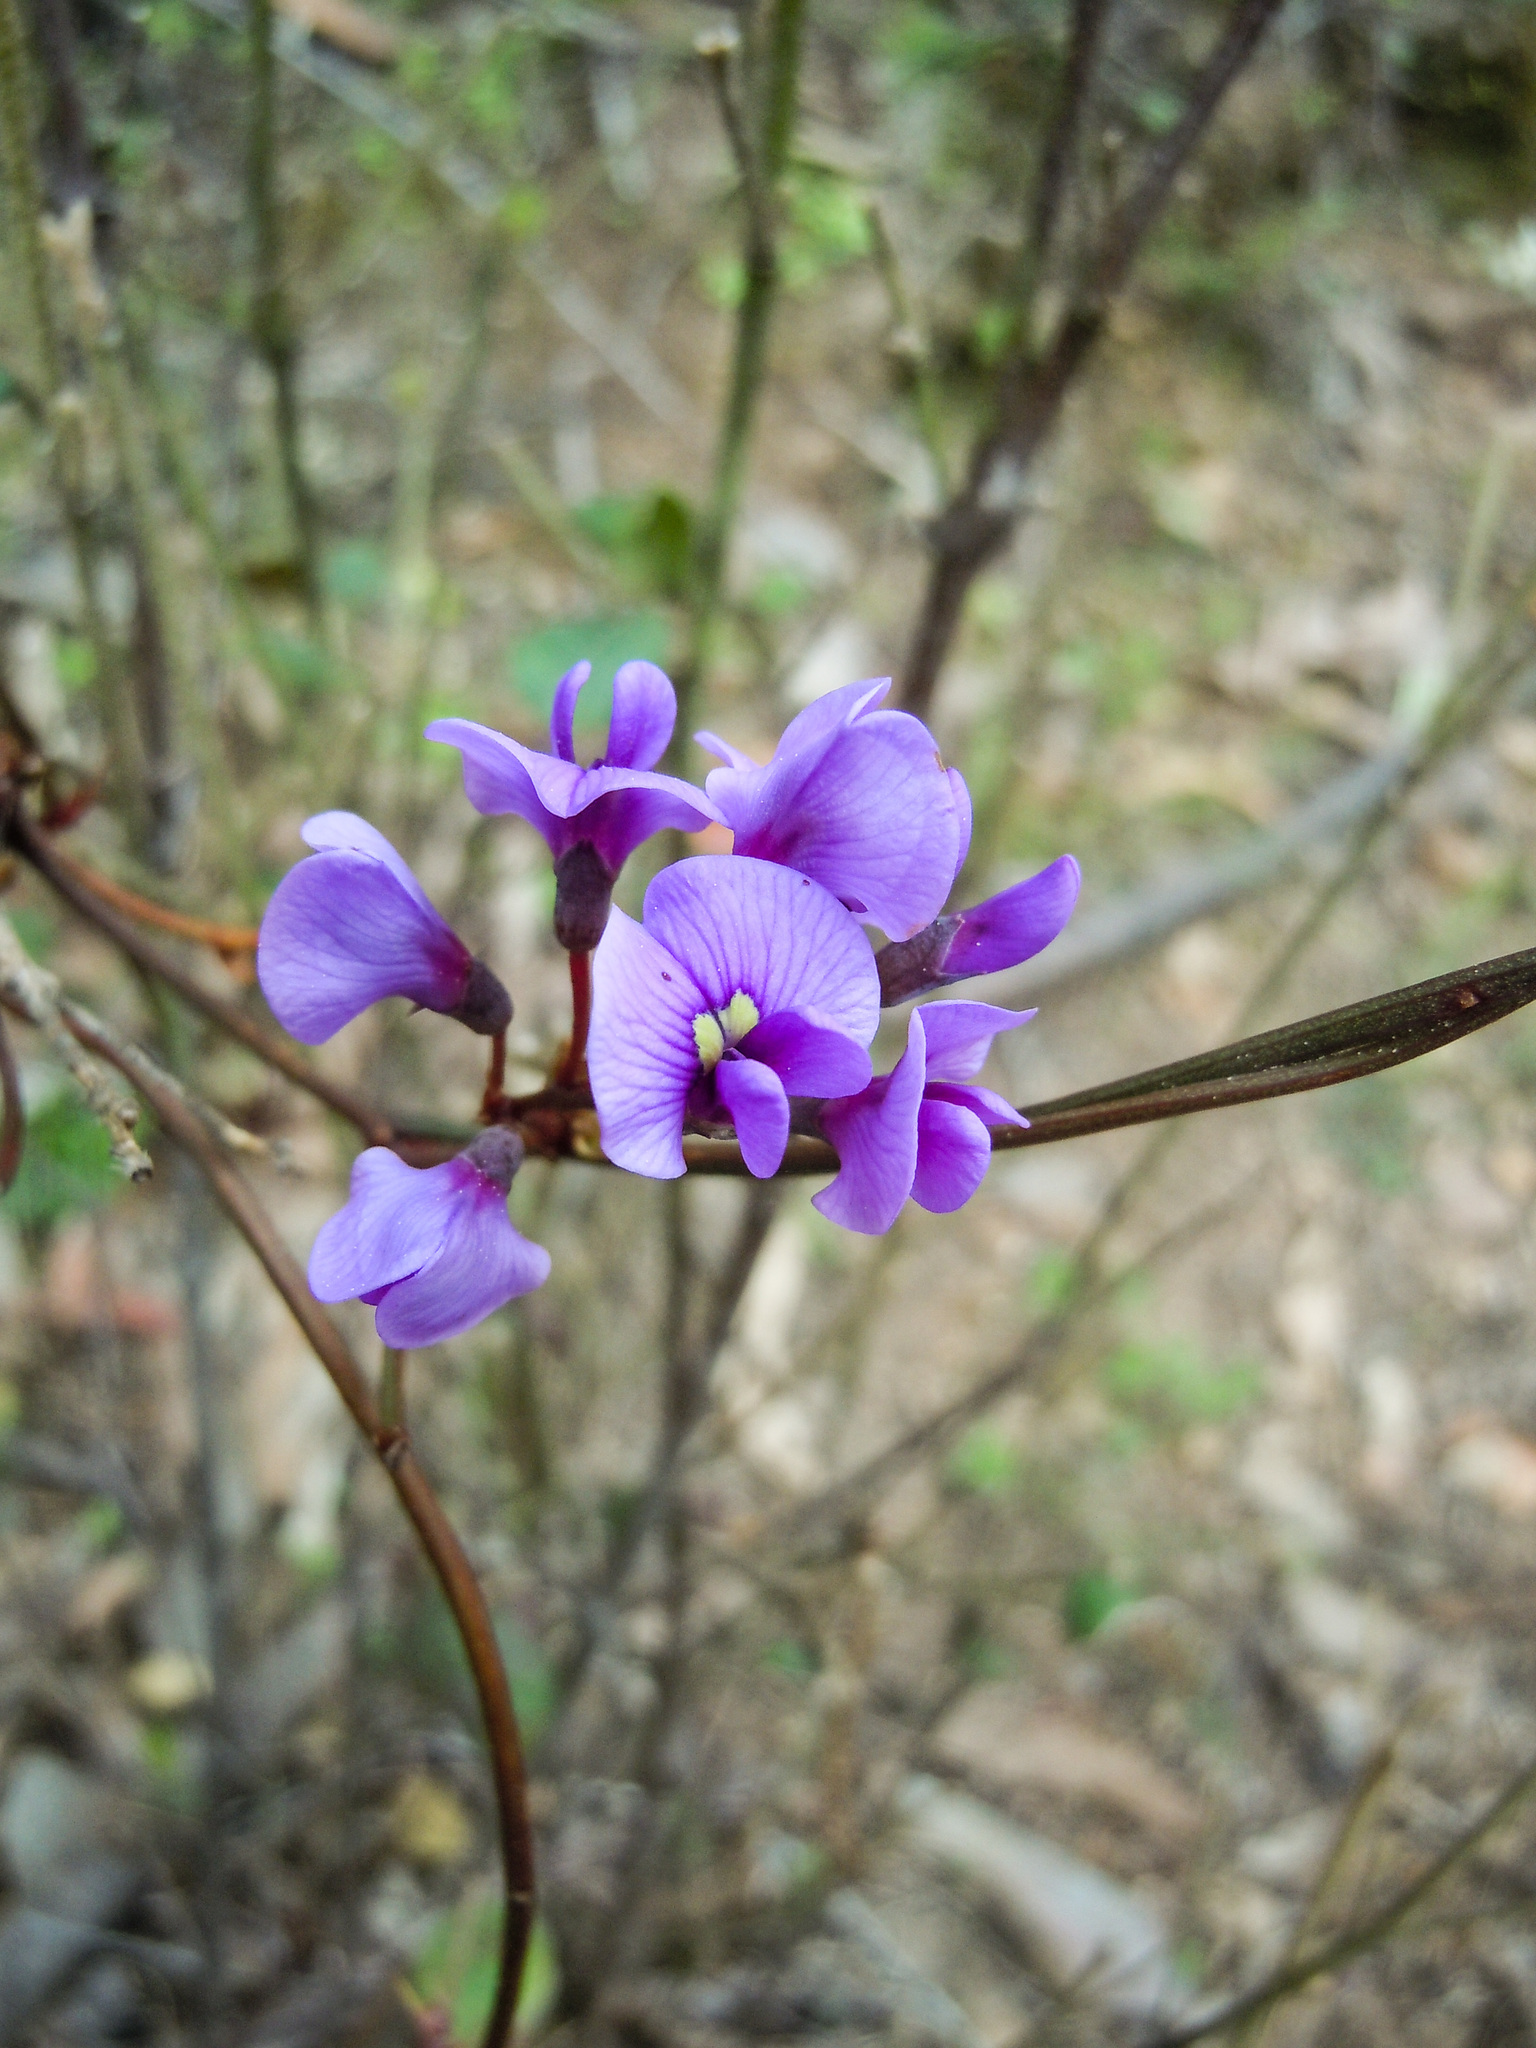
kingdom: Plantae
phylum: Tracheophyta
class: Magnoliopsida
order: Fabales
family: Fabaceae
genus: Hardenbergia
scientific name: Hardenbergia violacea
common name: Coral-pea
